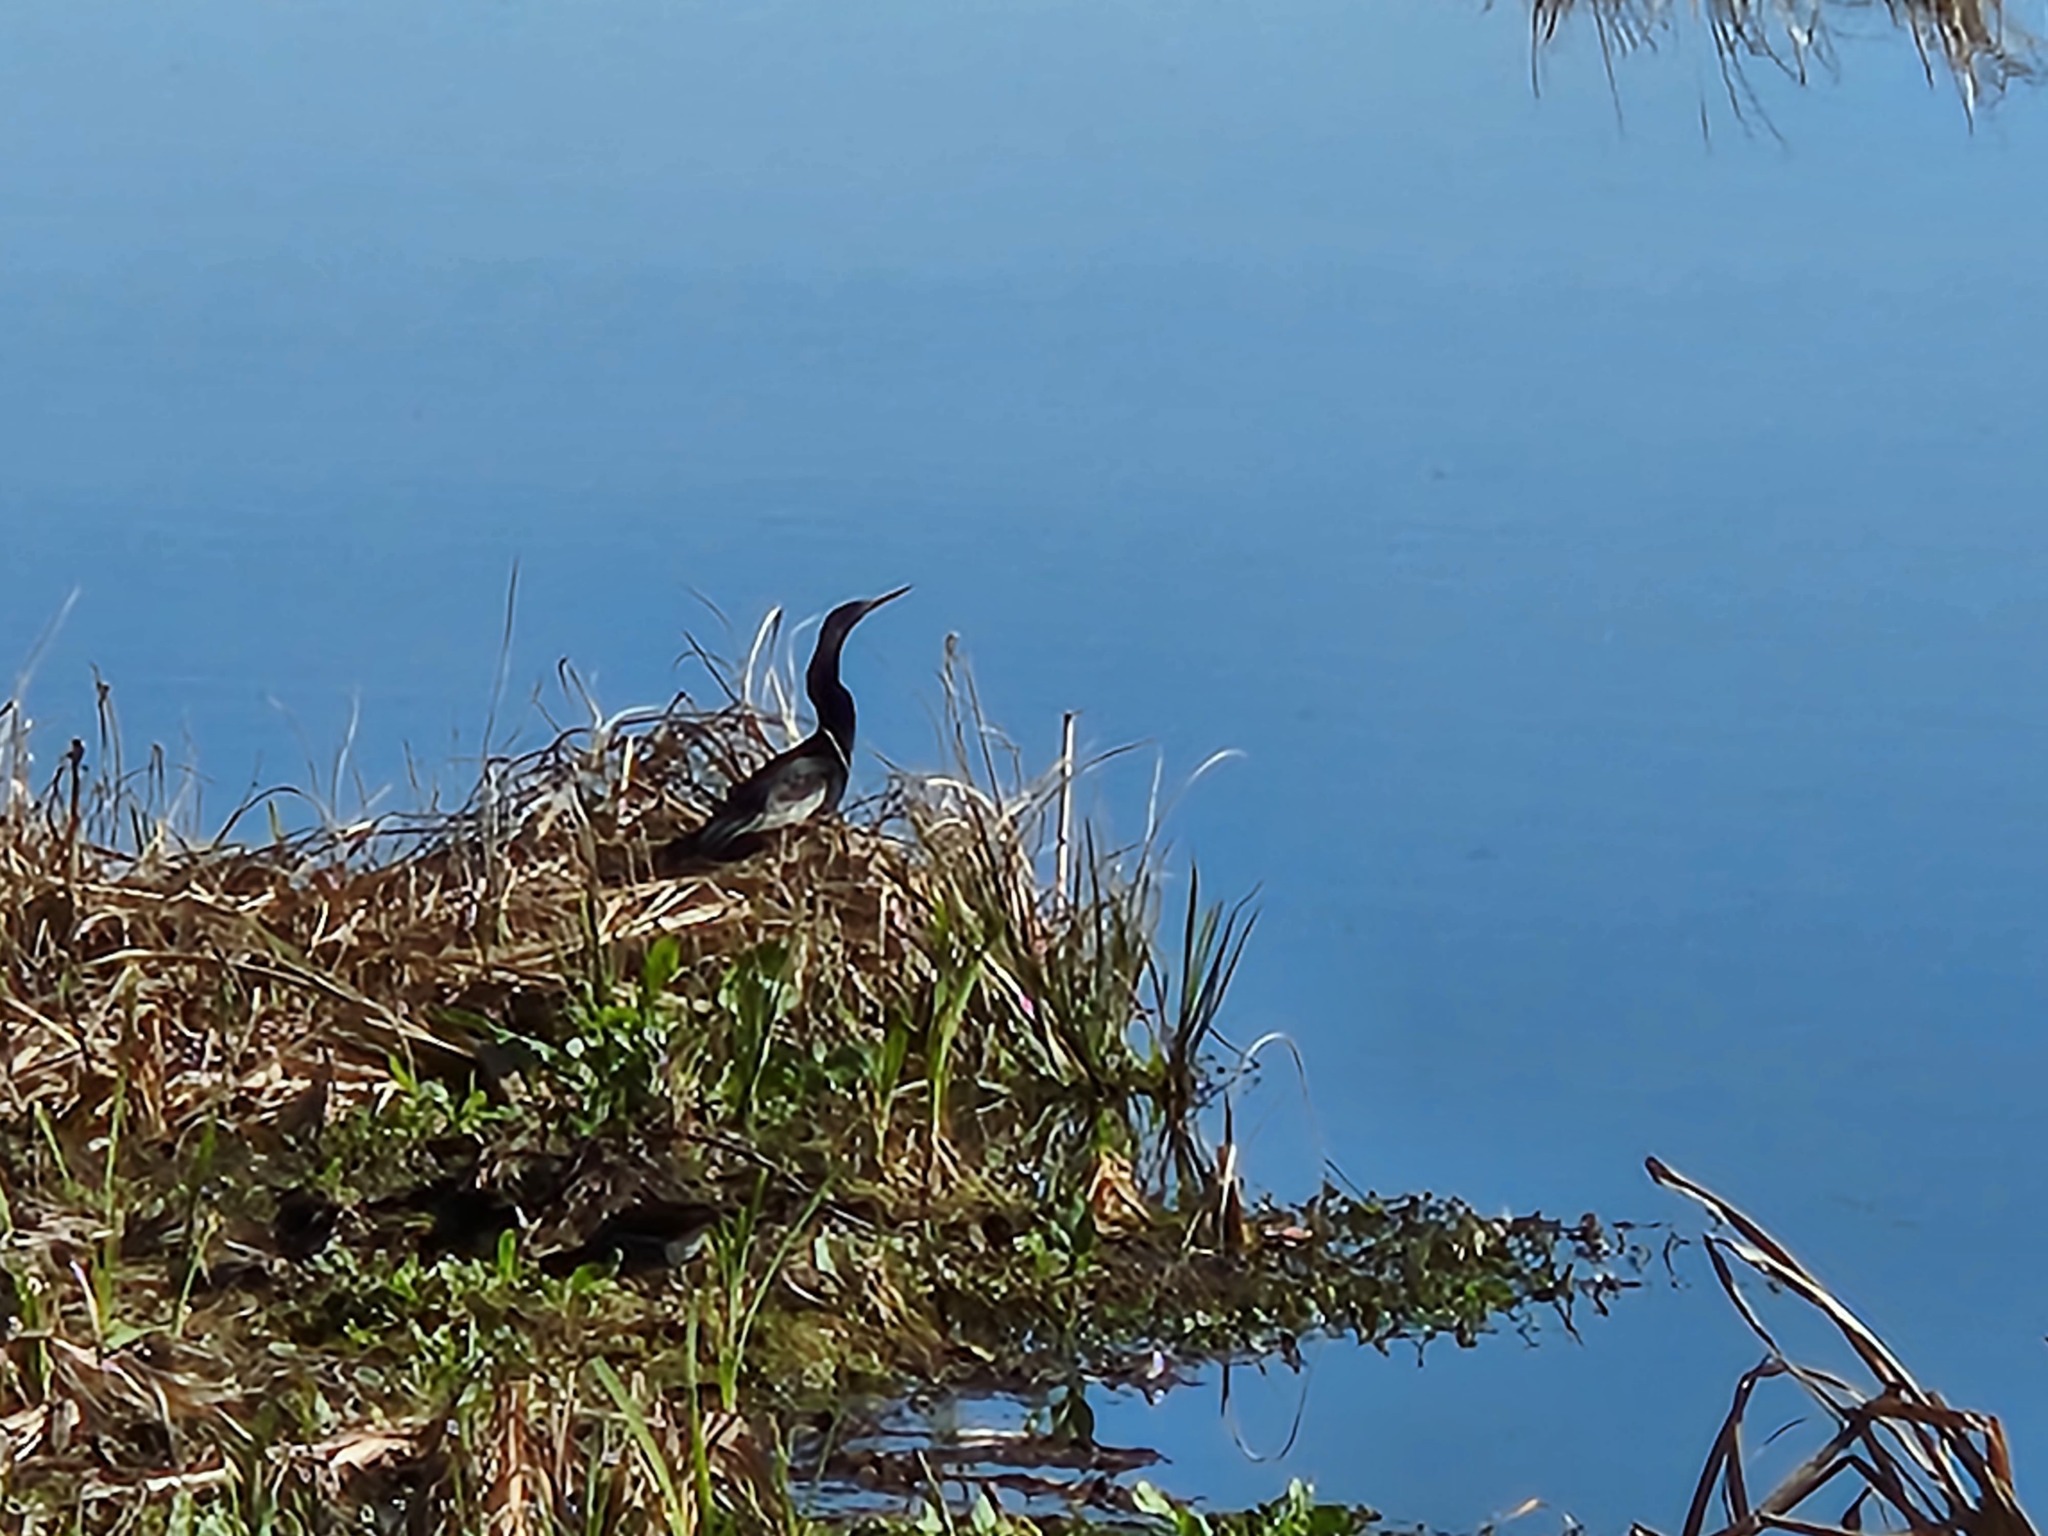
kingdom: Animalia
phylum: Chordata
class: Aves
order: Suliformes
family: Anhingidae
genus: Anhinga
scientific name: Anhinga anhinga
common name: Anhinga
